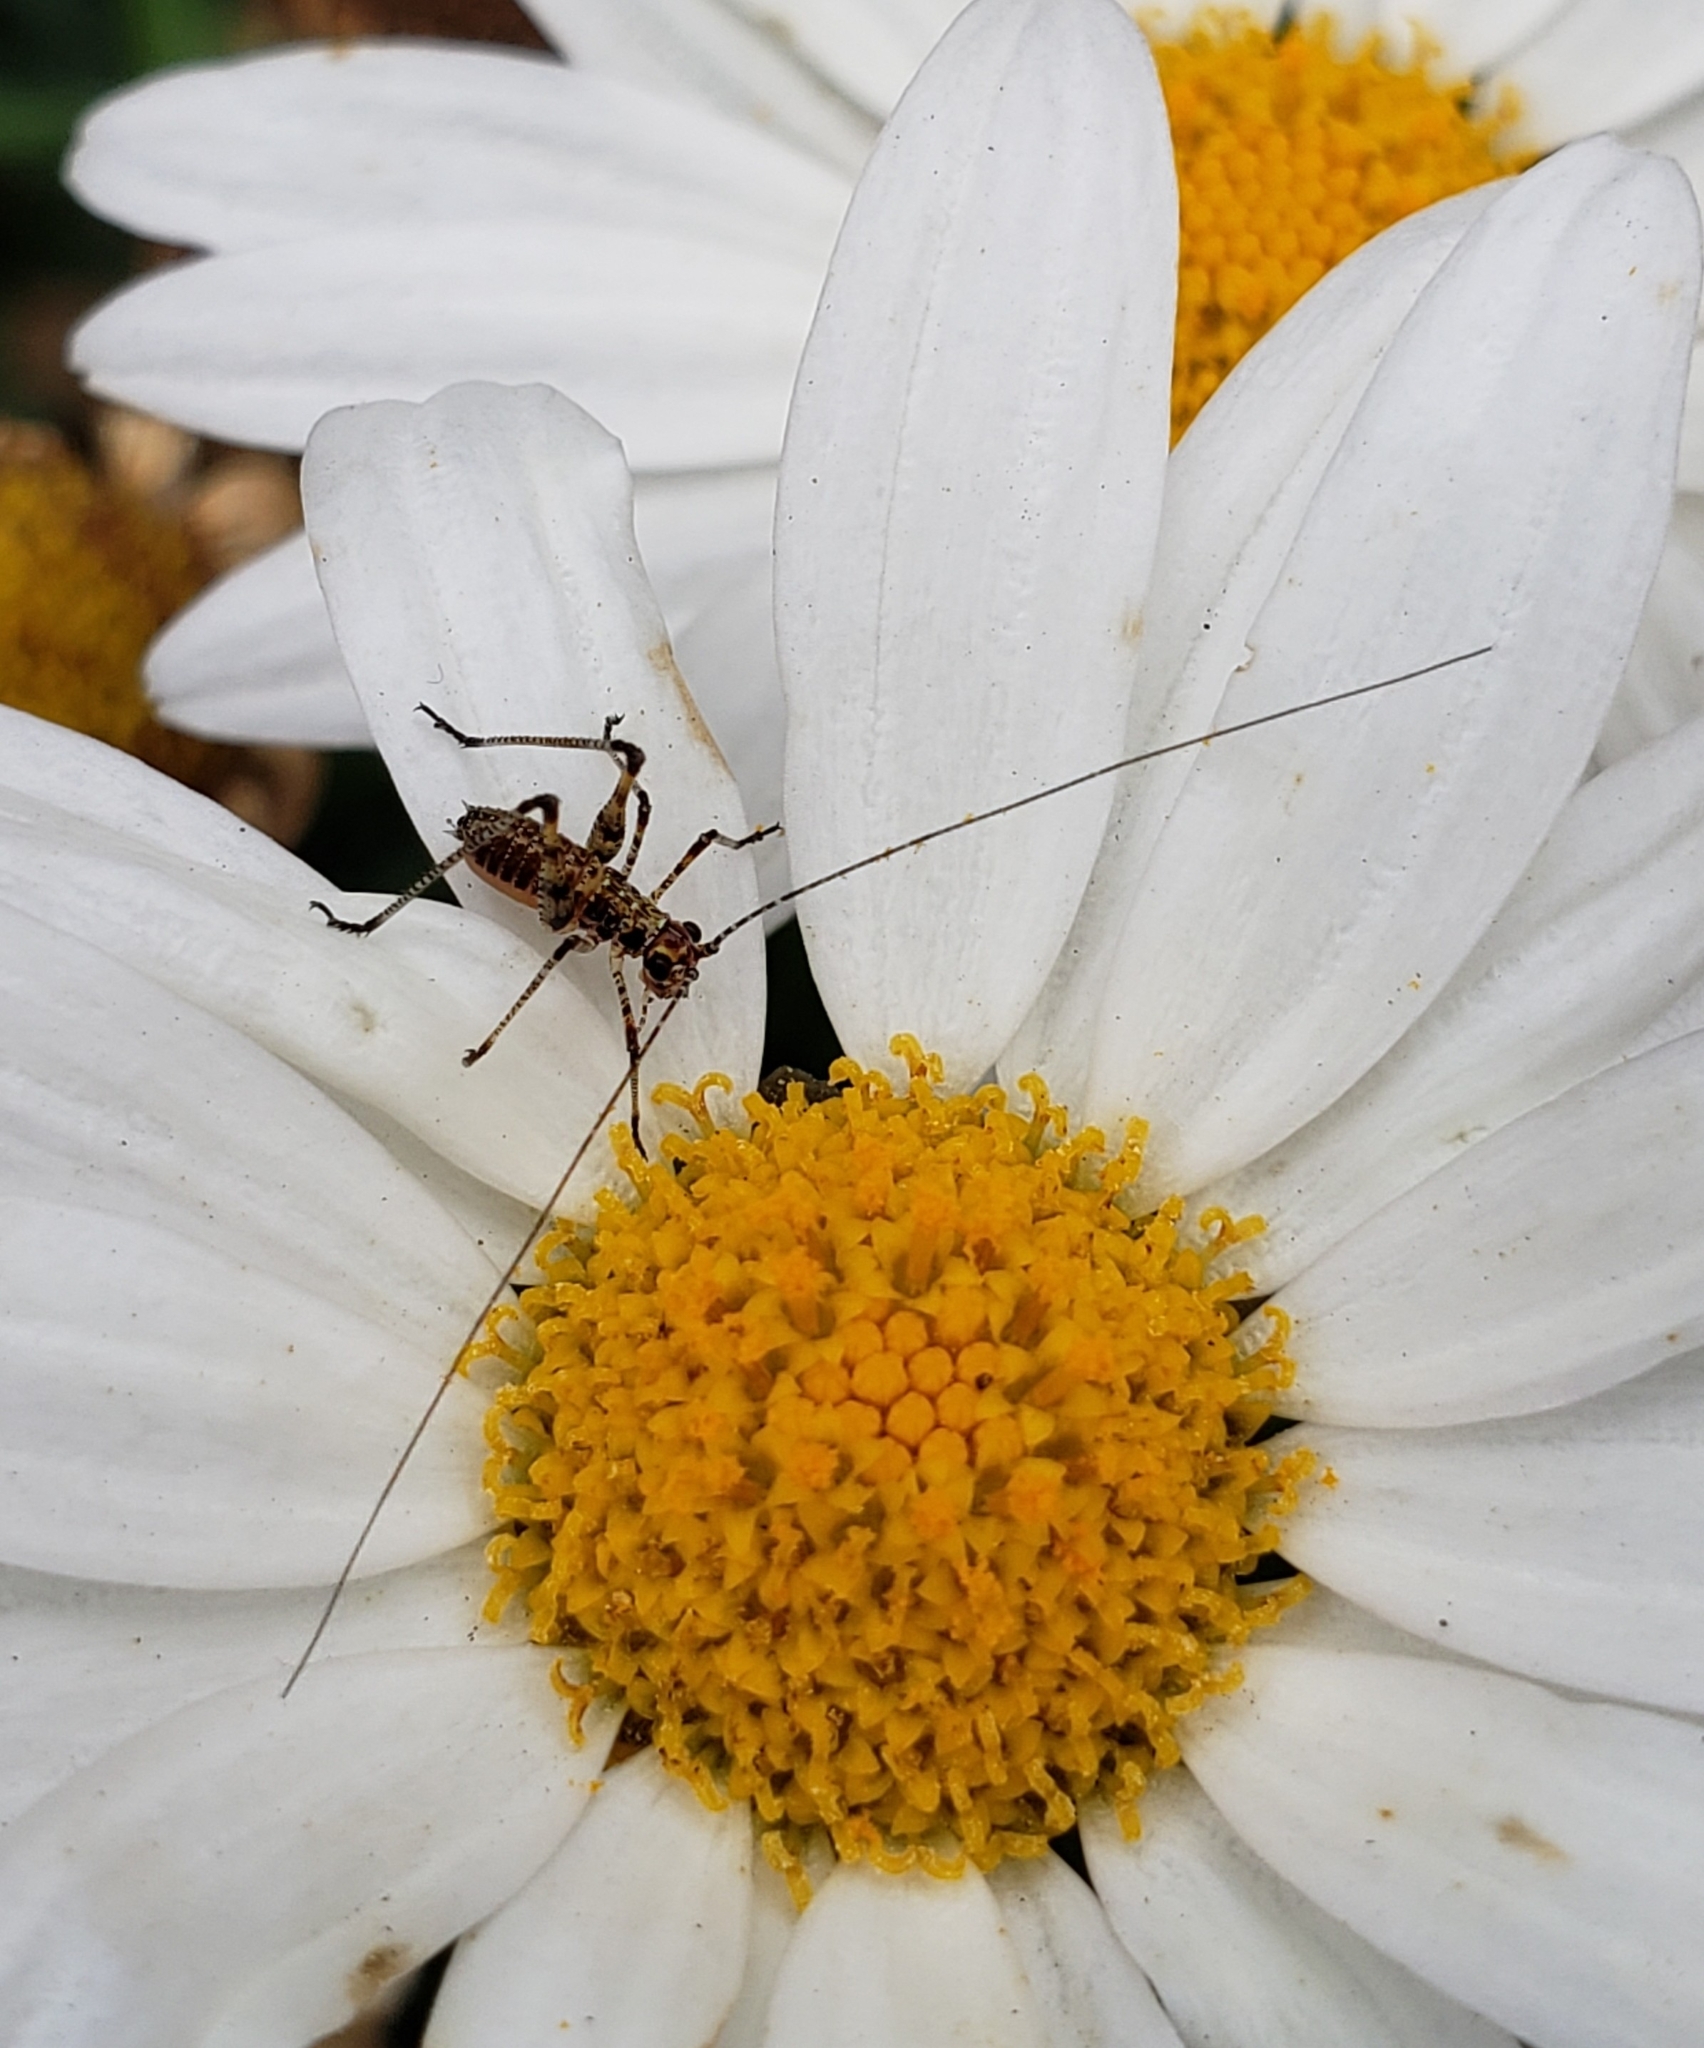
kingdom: Animalia
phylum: Arthropoda
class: Insecta
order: Orthoptera
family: Tettigoniidae
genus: Phaneroptera
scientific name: Phaneroptera nana
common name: Southern sickle bush-cricket
